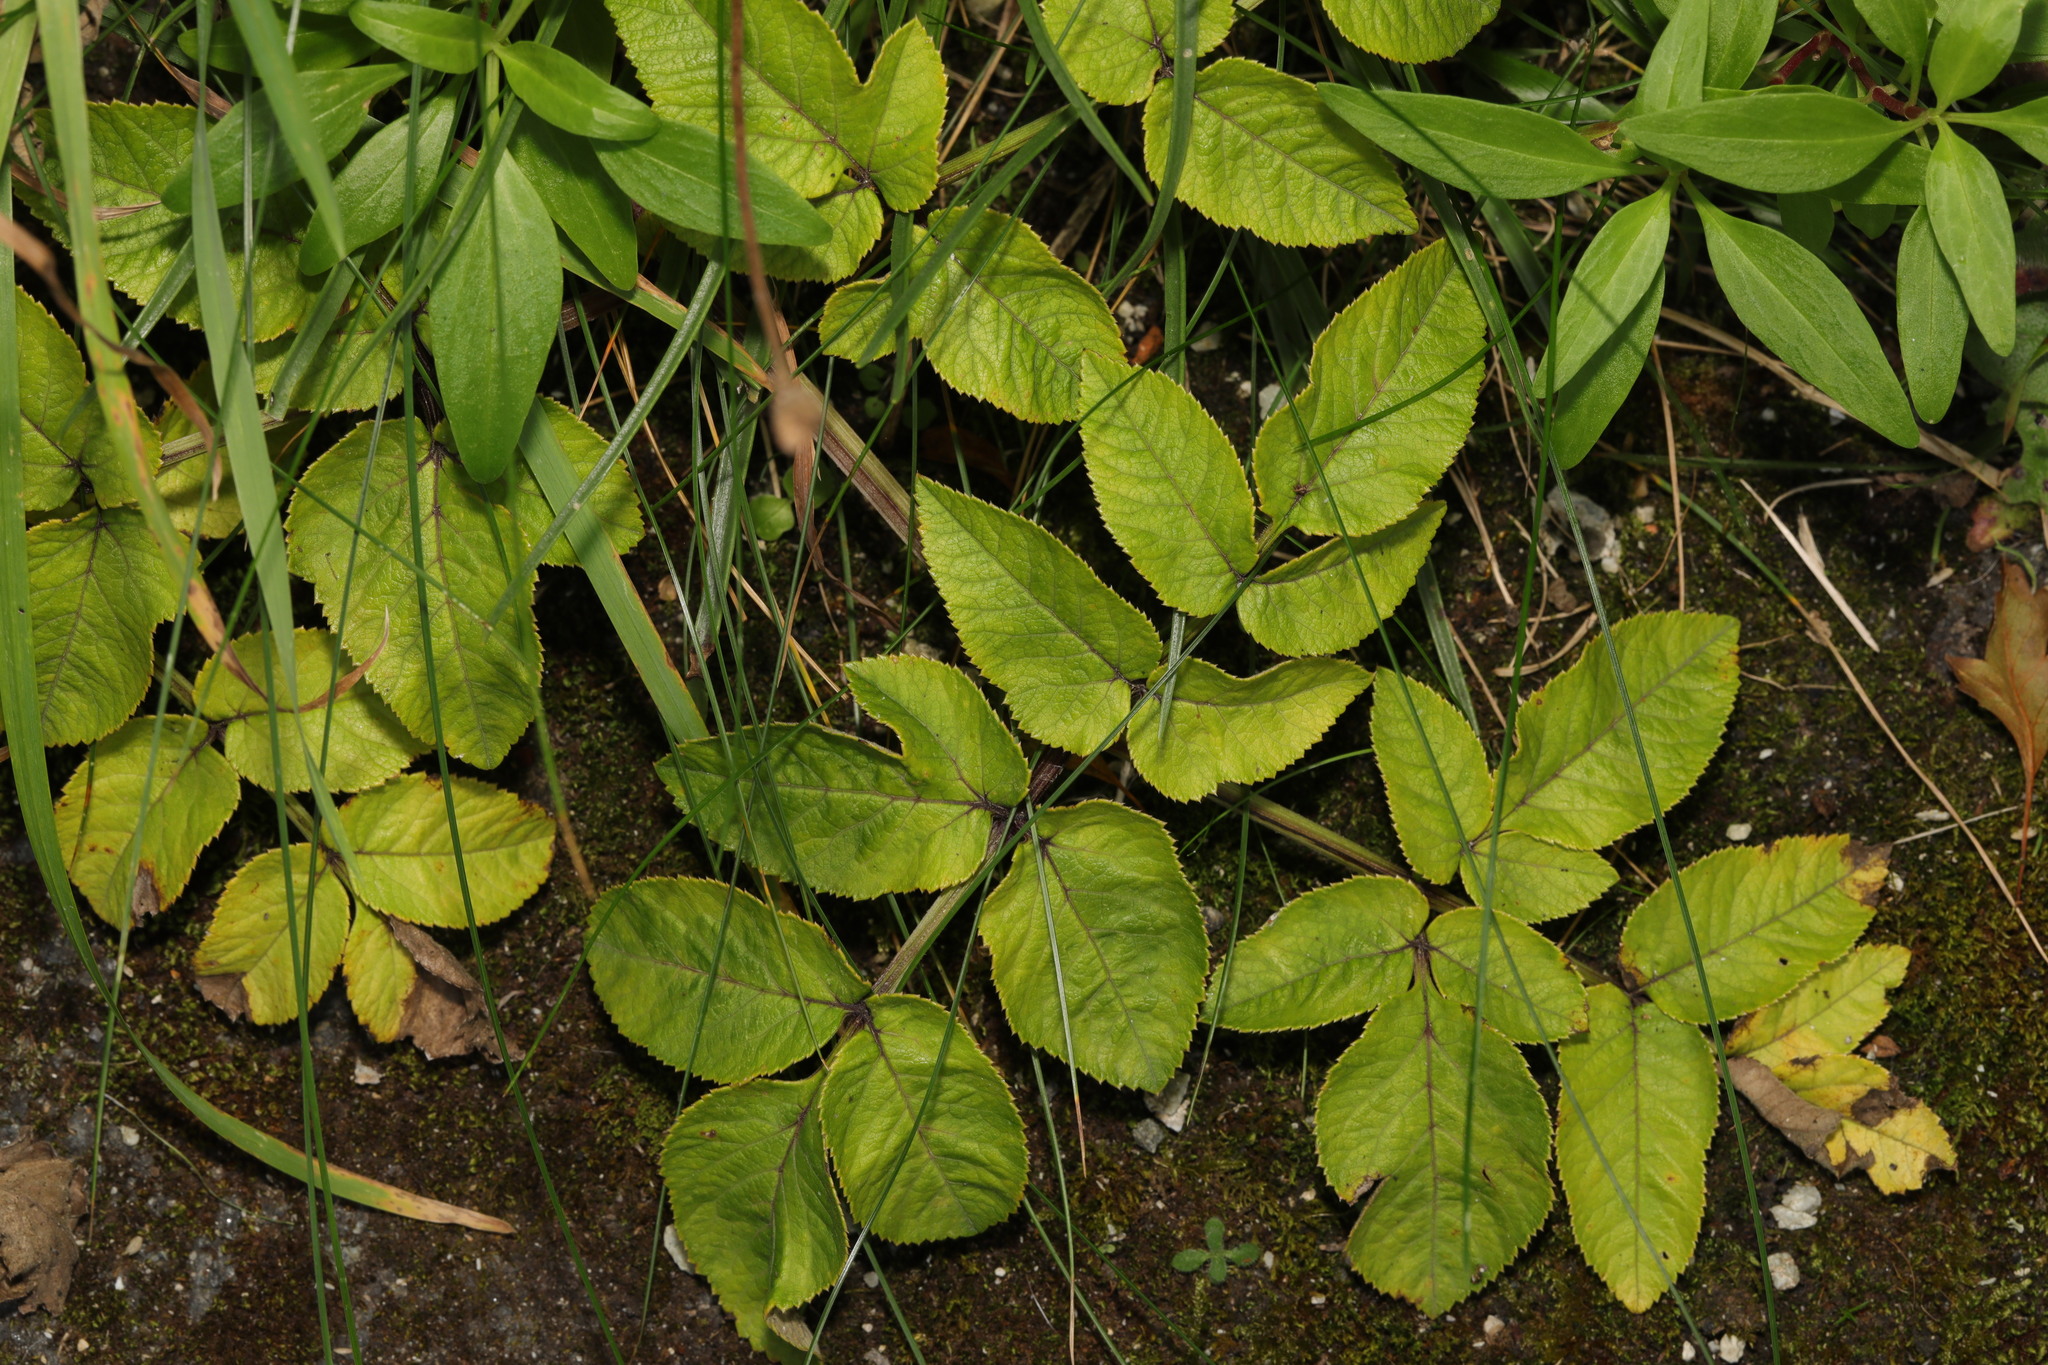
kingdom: Plantae
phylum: Tracheophyta
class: Magnoliopsida
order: Apiales
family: Apiaceae
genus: Angelica
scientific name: Angelica sylvestris
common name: Wild angelica
